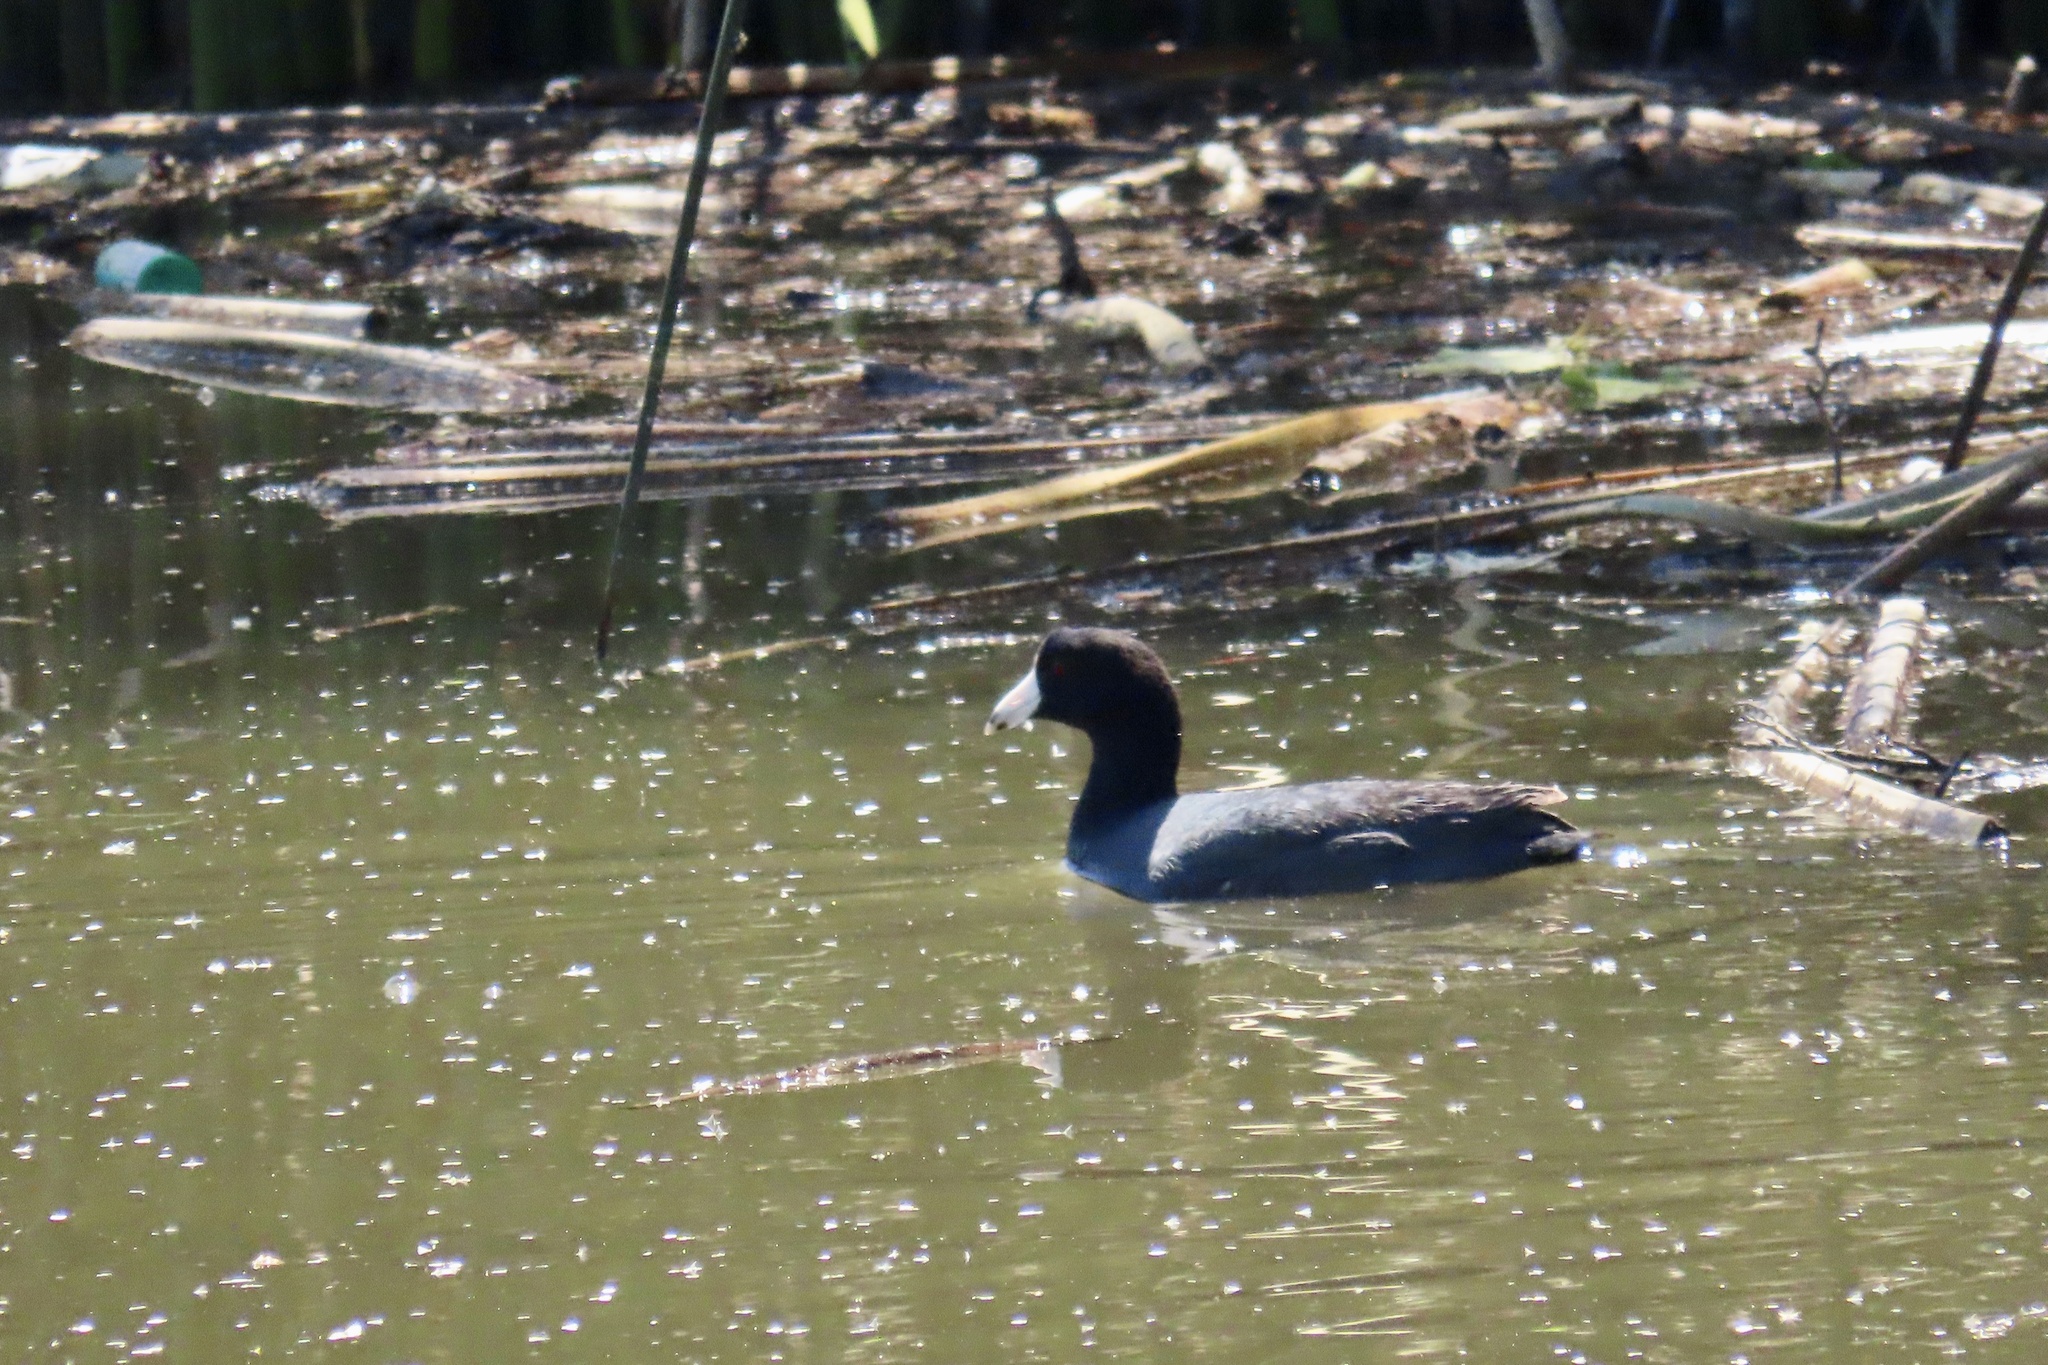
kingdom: Animalia
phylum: Chordata
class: Aves
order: Gruiformes
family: Rallidae
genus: Fulica
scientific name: Fulica americana
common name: American coot
